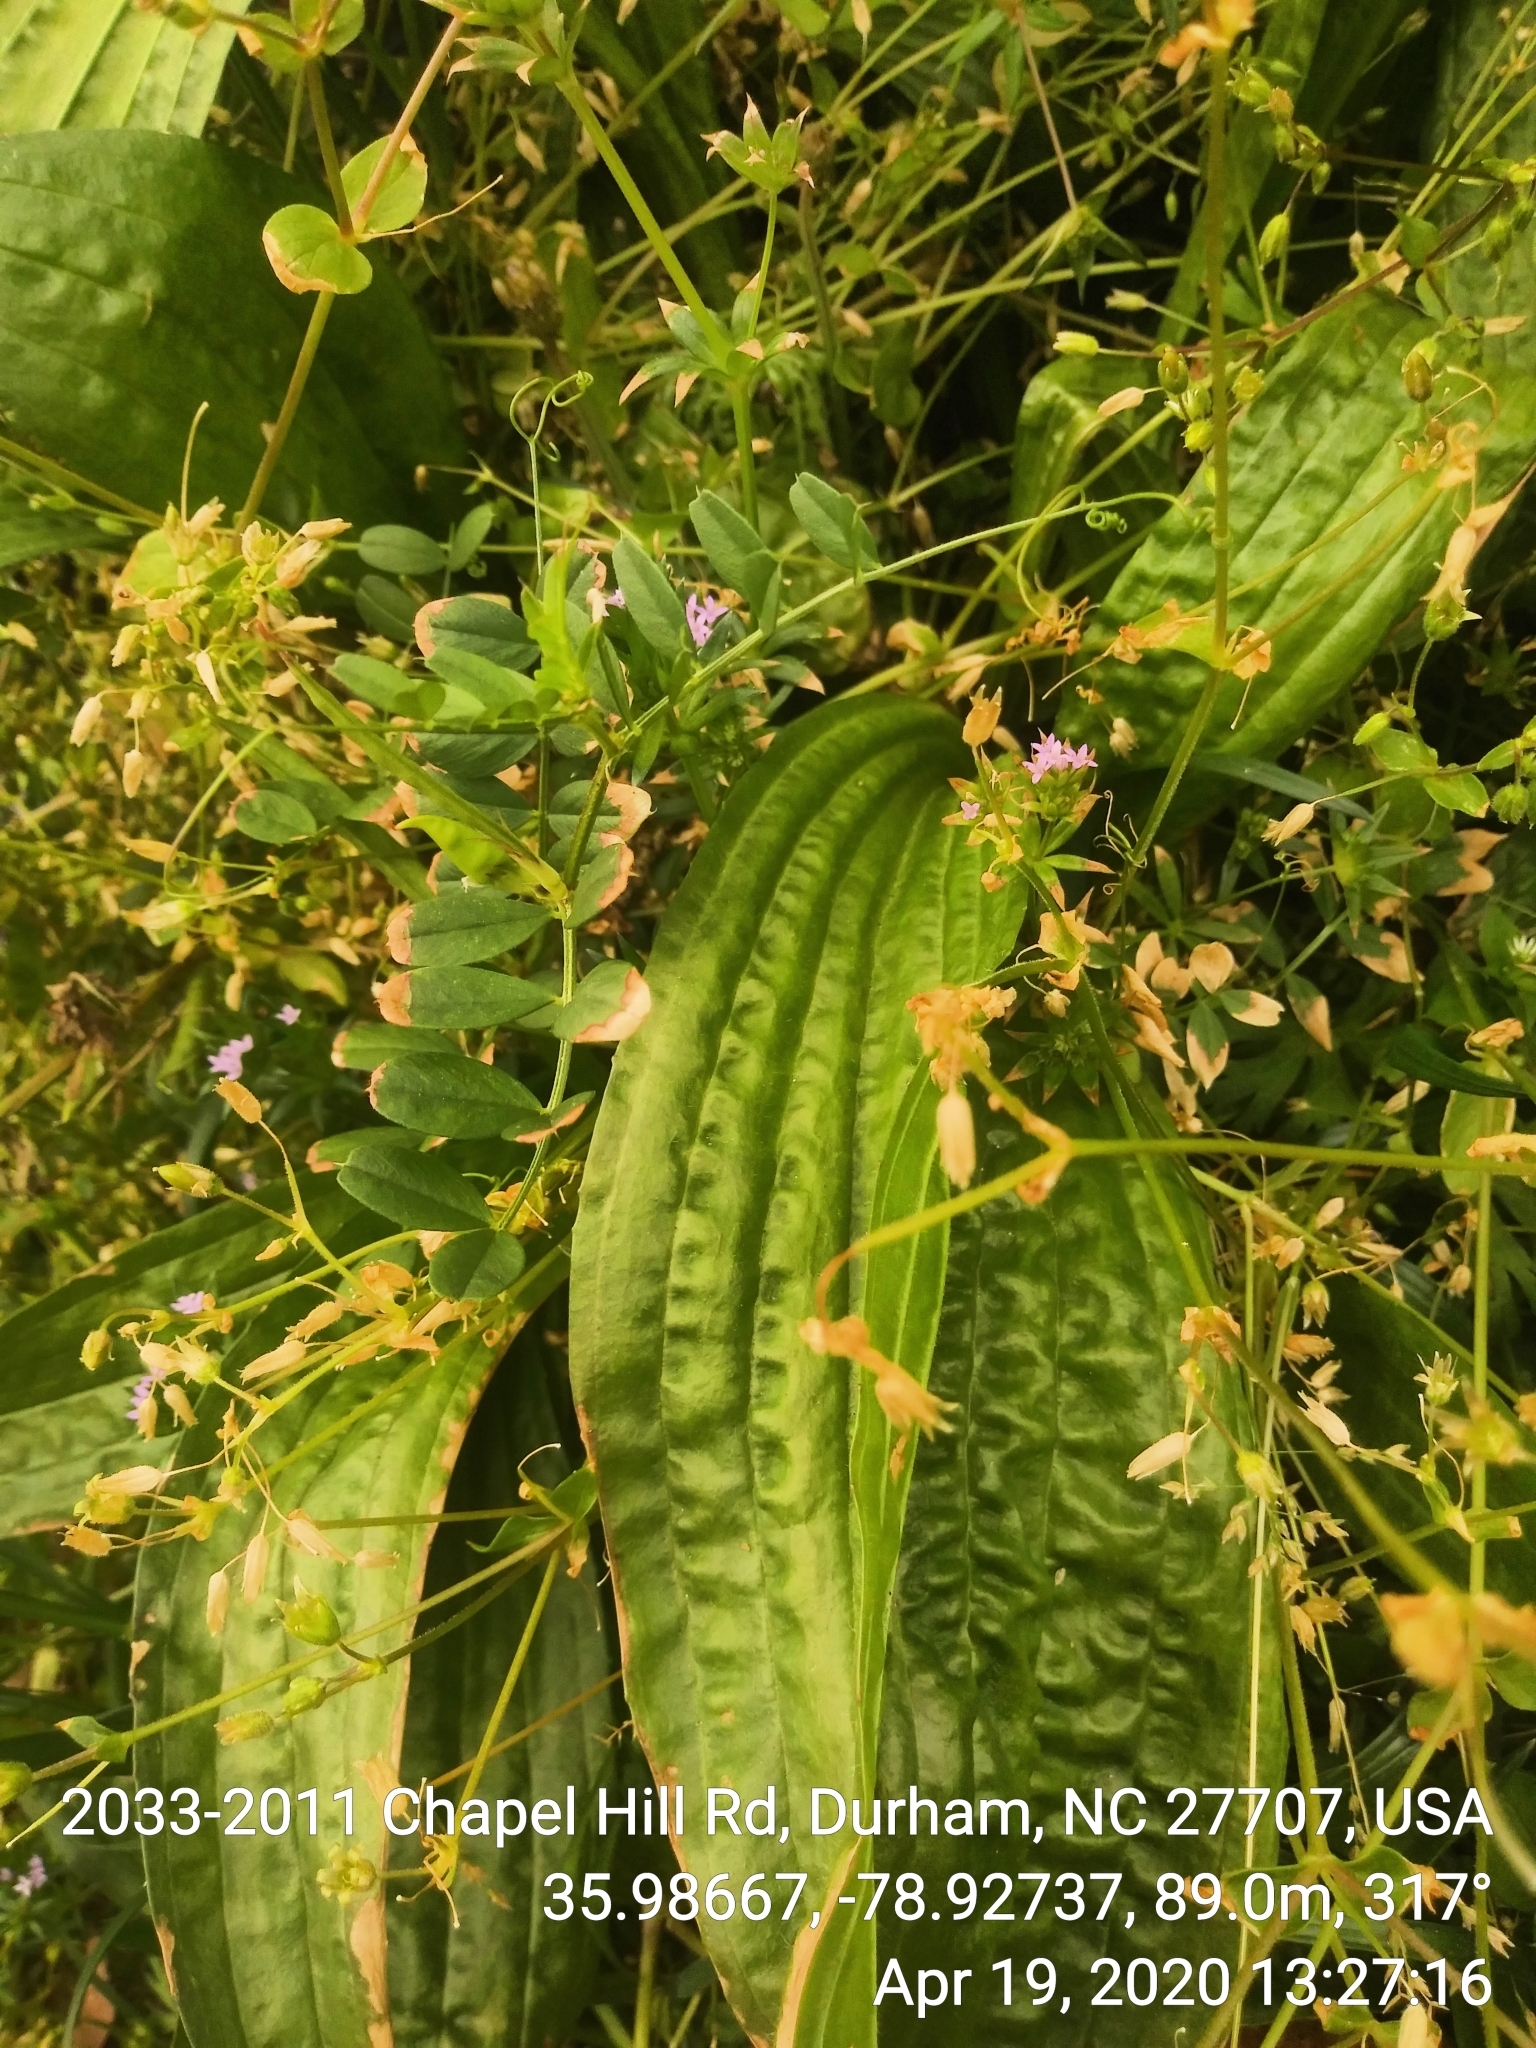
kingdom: Plantae
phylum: Tracheophyta
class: Magnoliopsida
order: Lamiales
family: Plantaginaceae
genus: Plantago
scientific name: Plantago lanceolata
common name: Ribwort plantain
